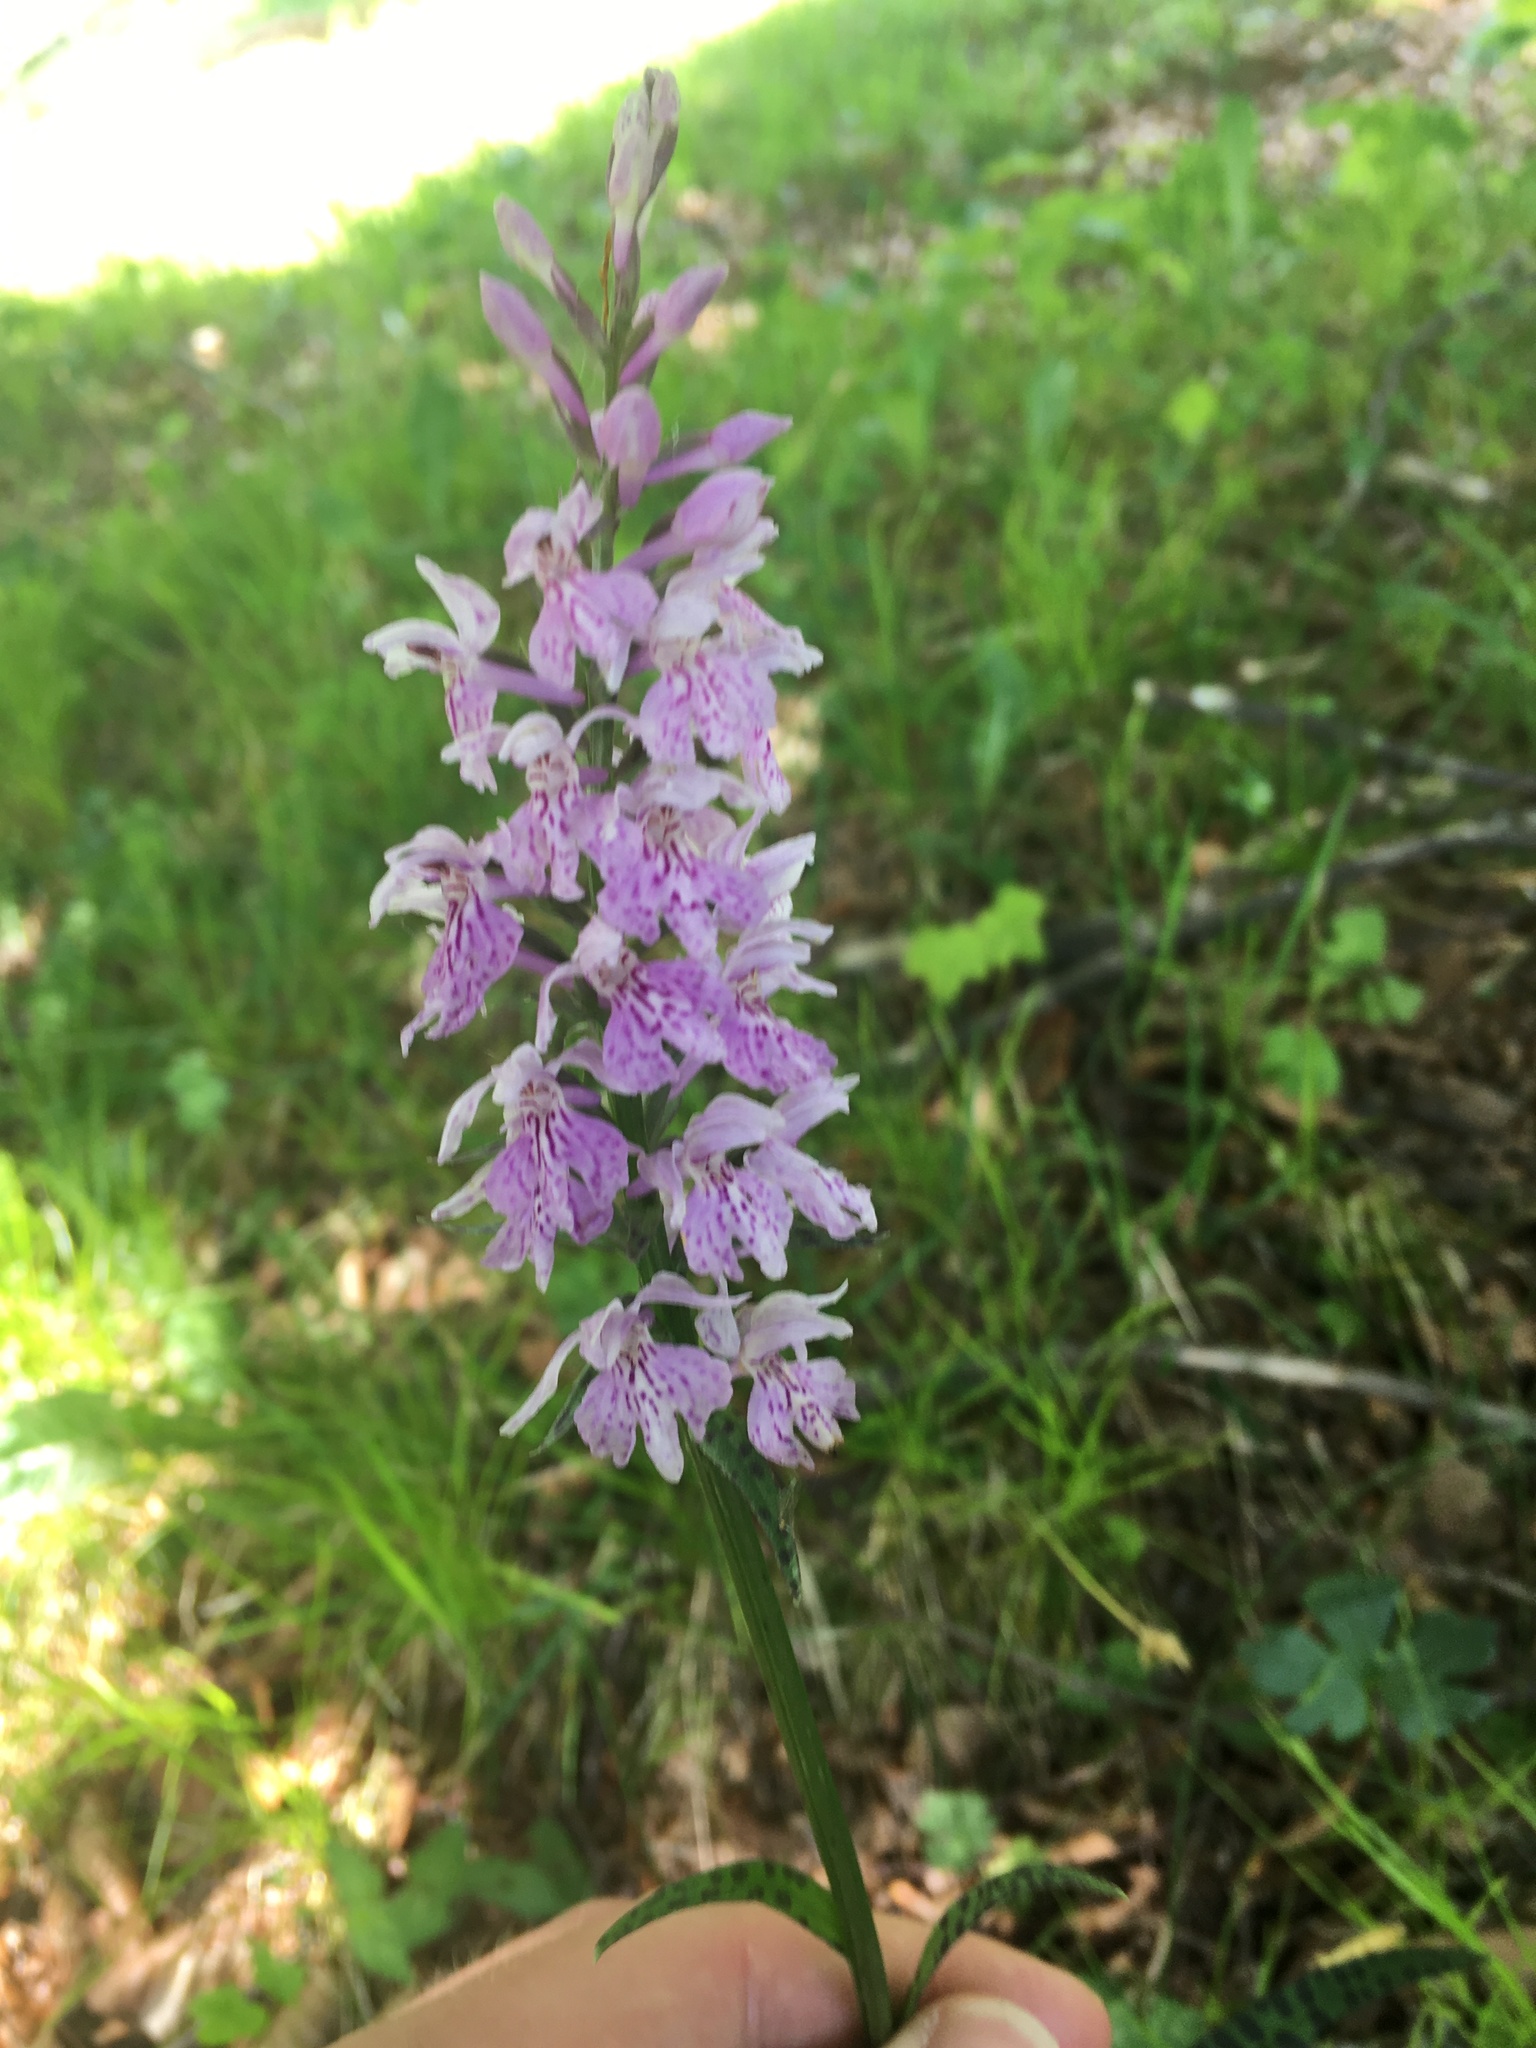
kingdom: Plantae
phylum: Tracheophyta
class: Liliopsida
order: Asparagales
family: Orchidaceae
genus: Dactylorhiza
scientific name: Dactylorhiza maculata
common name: Heath spotted-orchid
